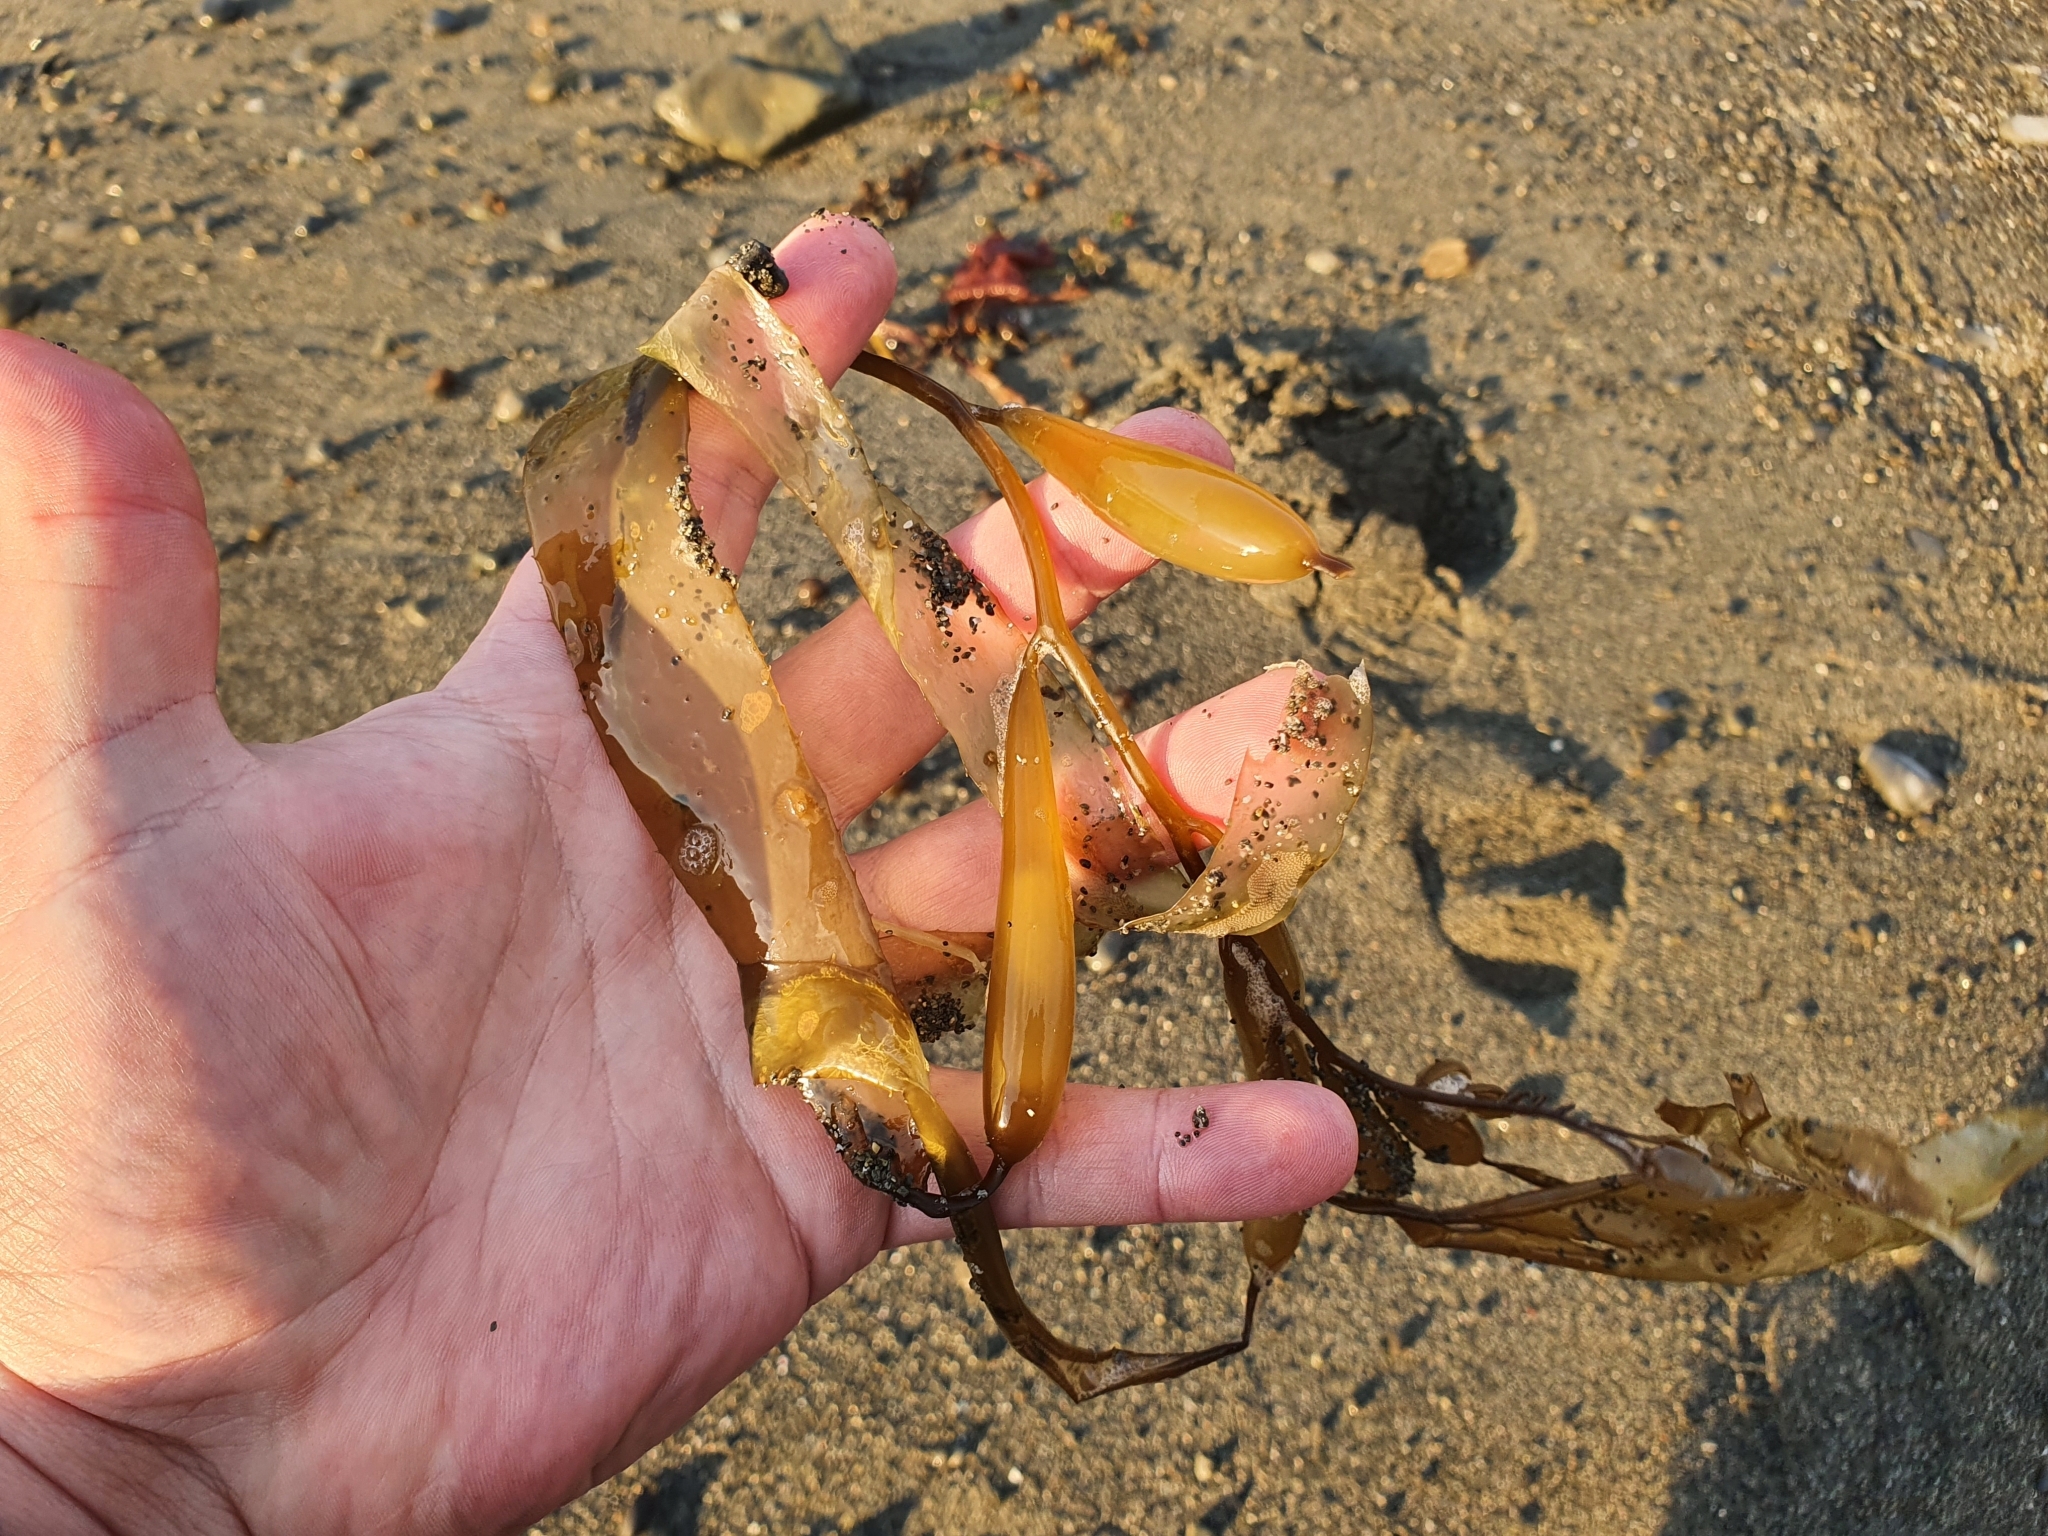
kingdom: Chromista
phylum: Ochrophyta
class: Phaeophyceae
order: Laminariales
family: Laminariaceae
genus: Macrocystis
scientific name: Macrocystis pyrifera
